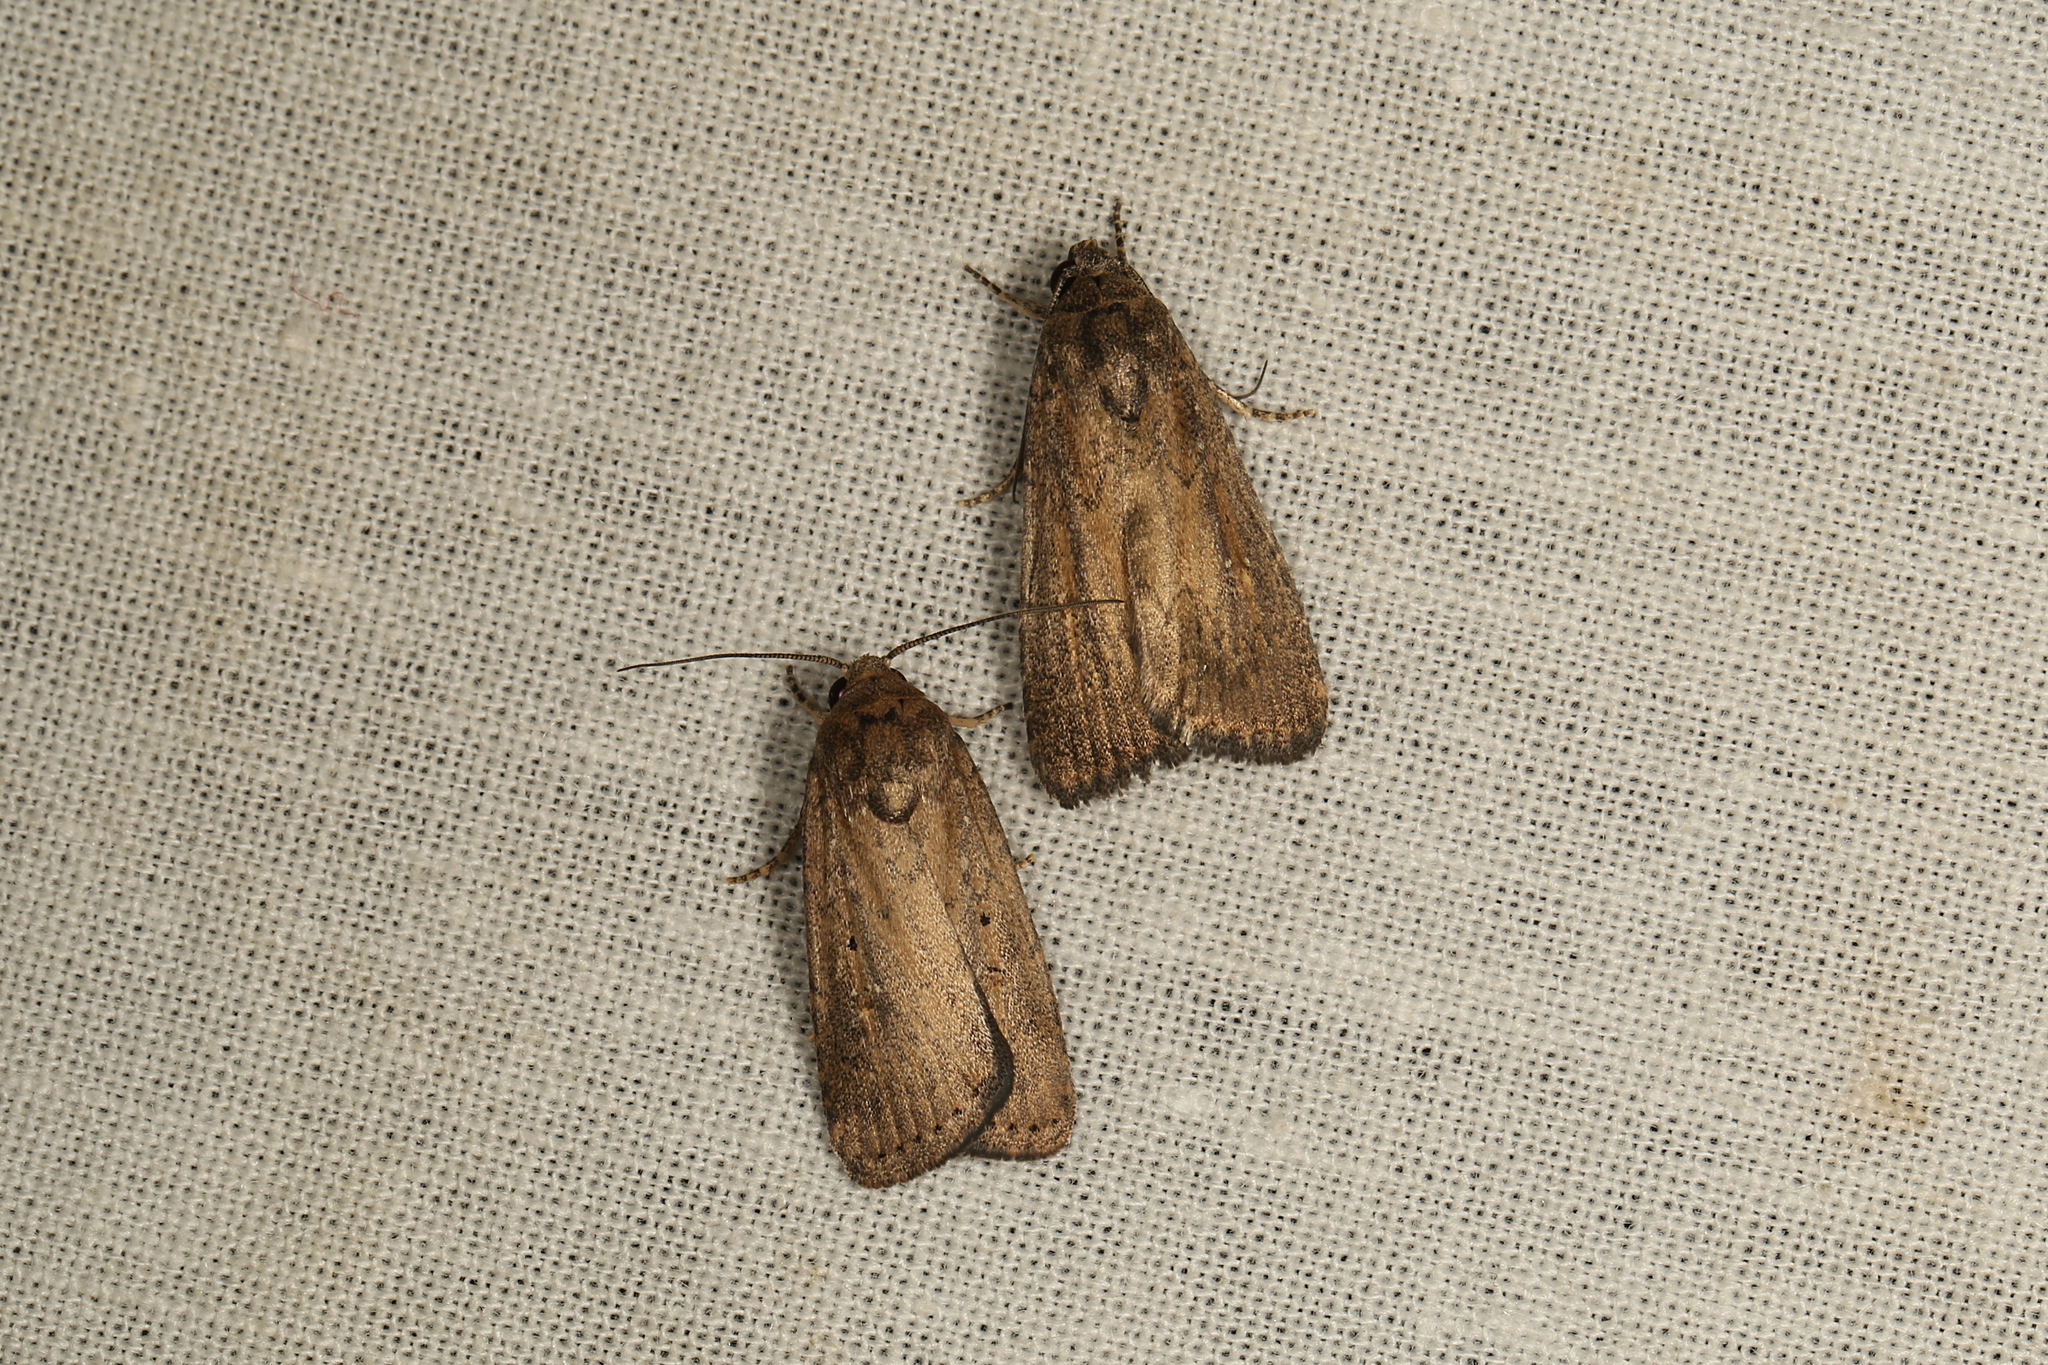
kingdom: Animalia
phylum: Arthropoda
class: Insecta
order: Lepidoptera
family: Noctuidae
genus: Athetis
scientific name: Athetis tenuis
